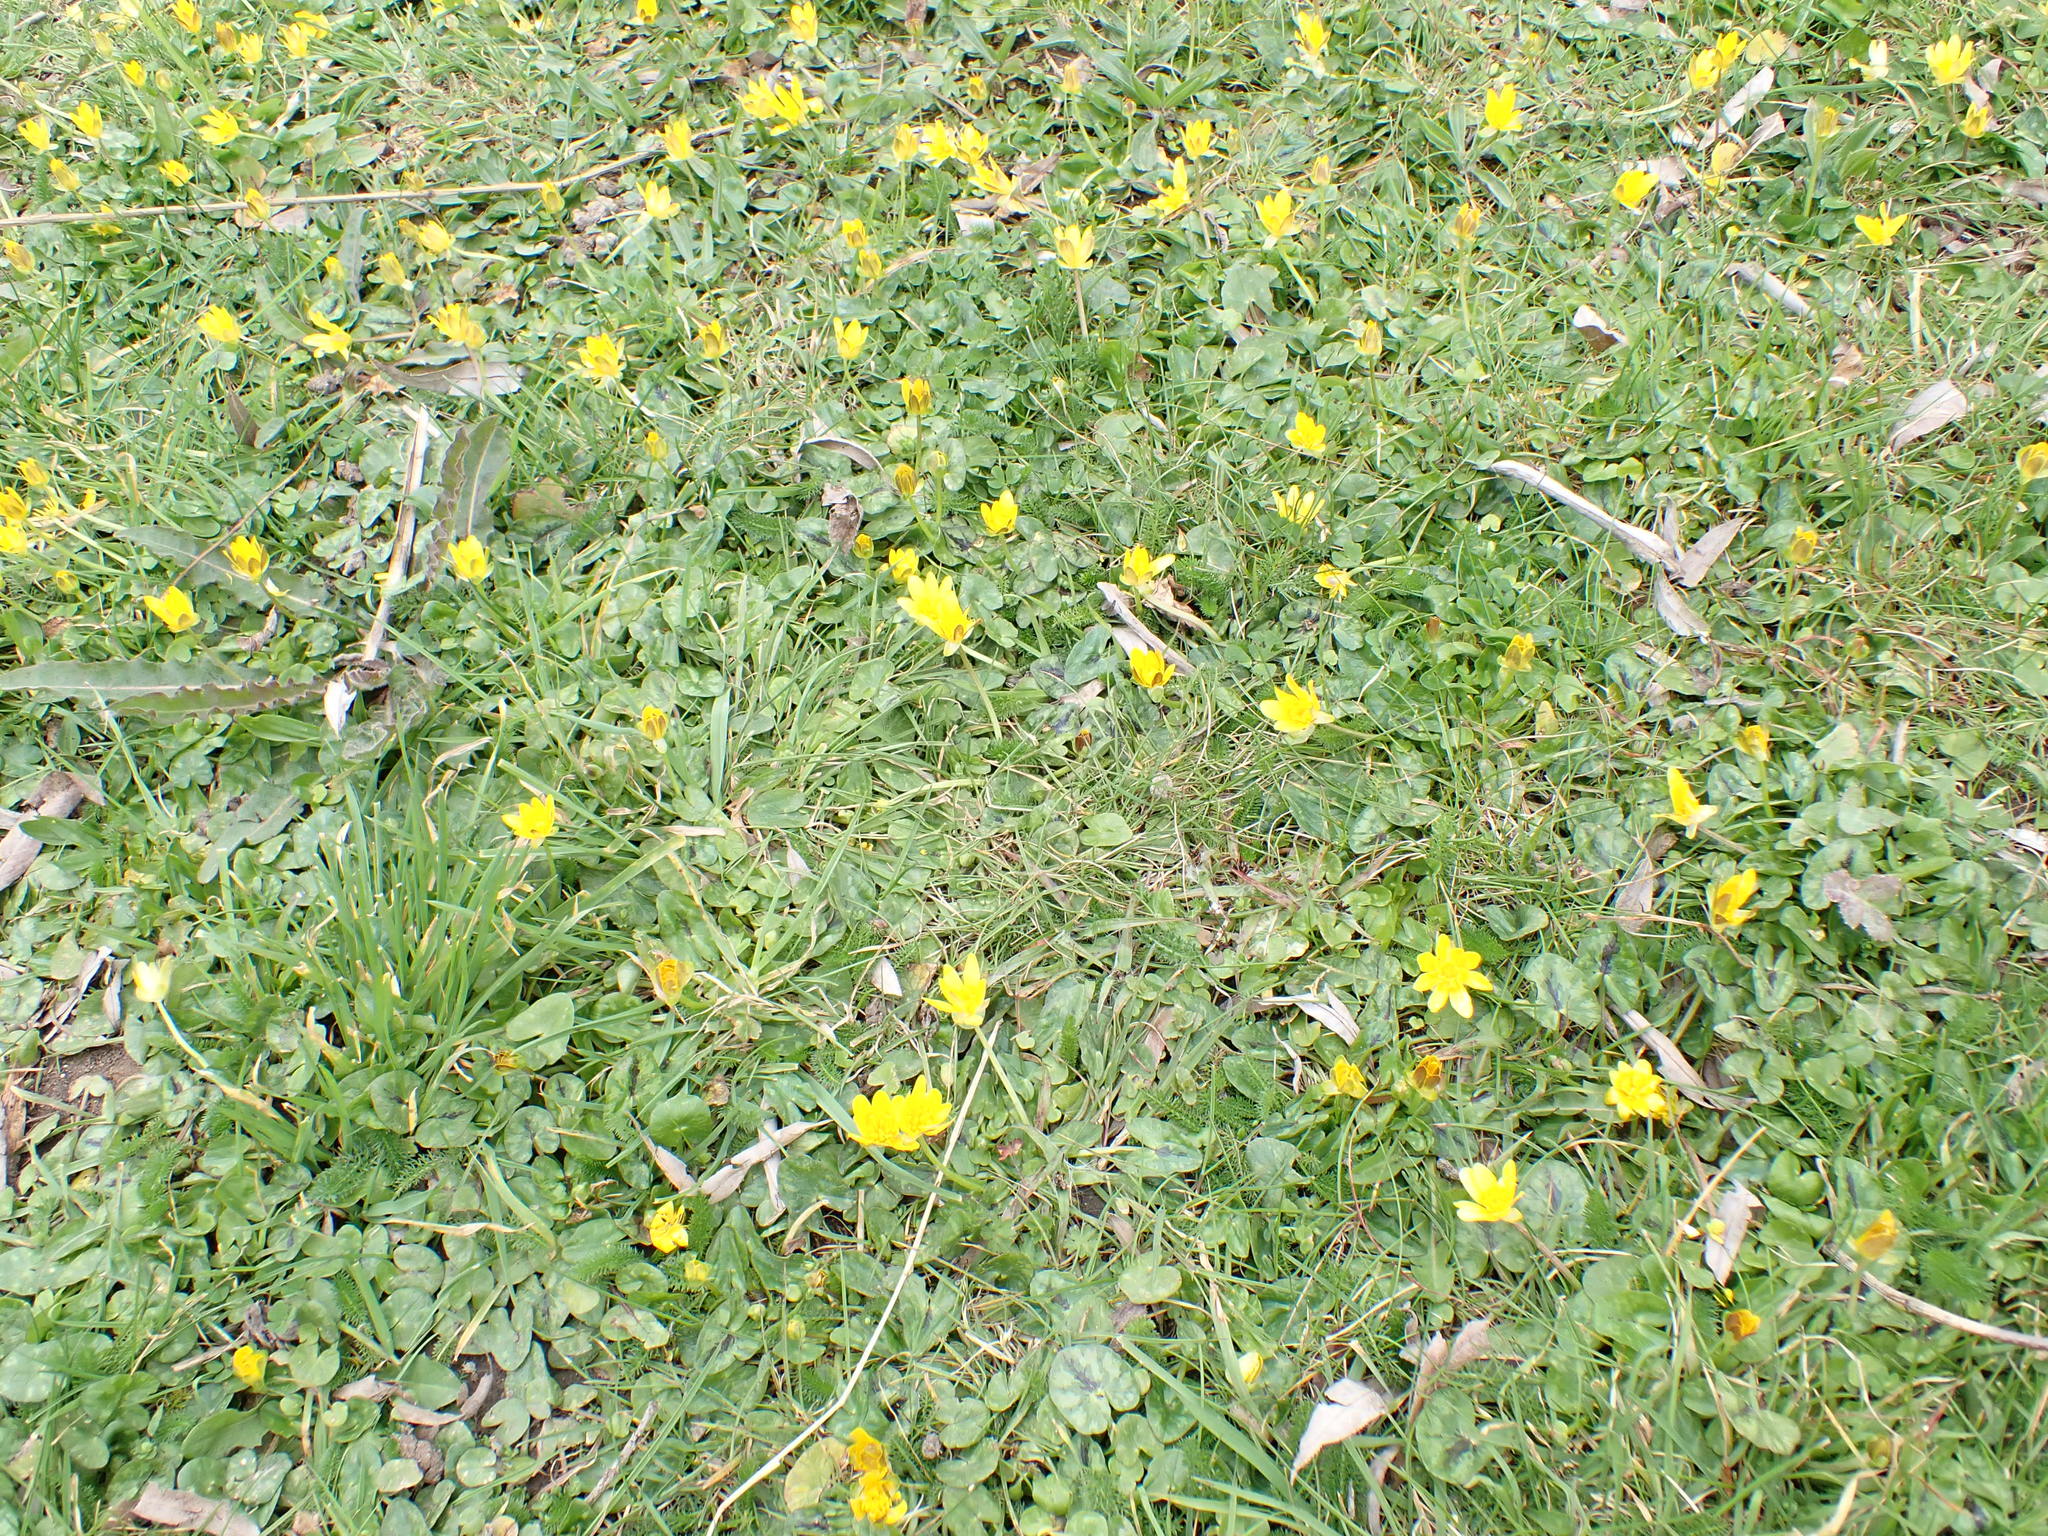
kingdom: Plantae
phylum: Tracheophyta
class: Magnoliopsida
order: Ranunculales
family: Ranunculaceae
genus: Ficaria
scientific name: Ficaria verna
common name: Lesser celandine
